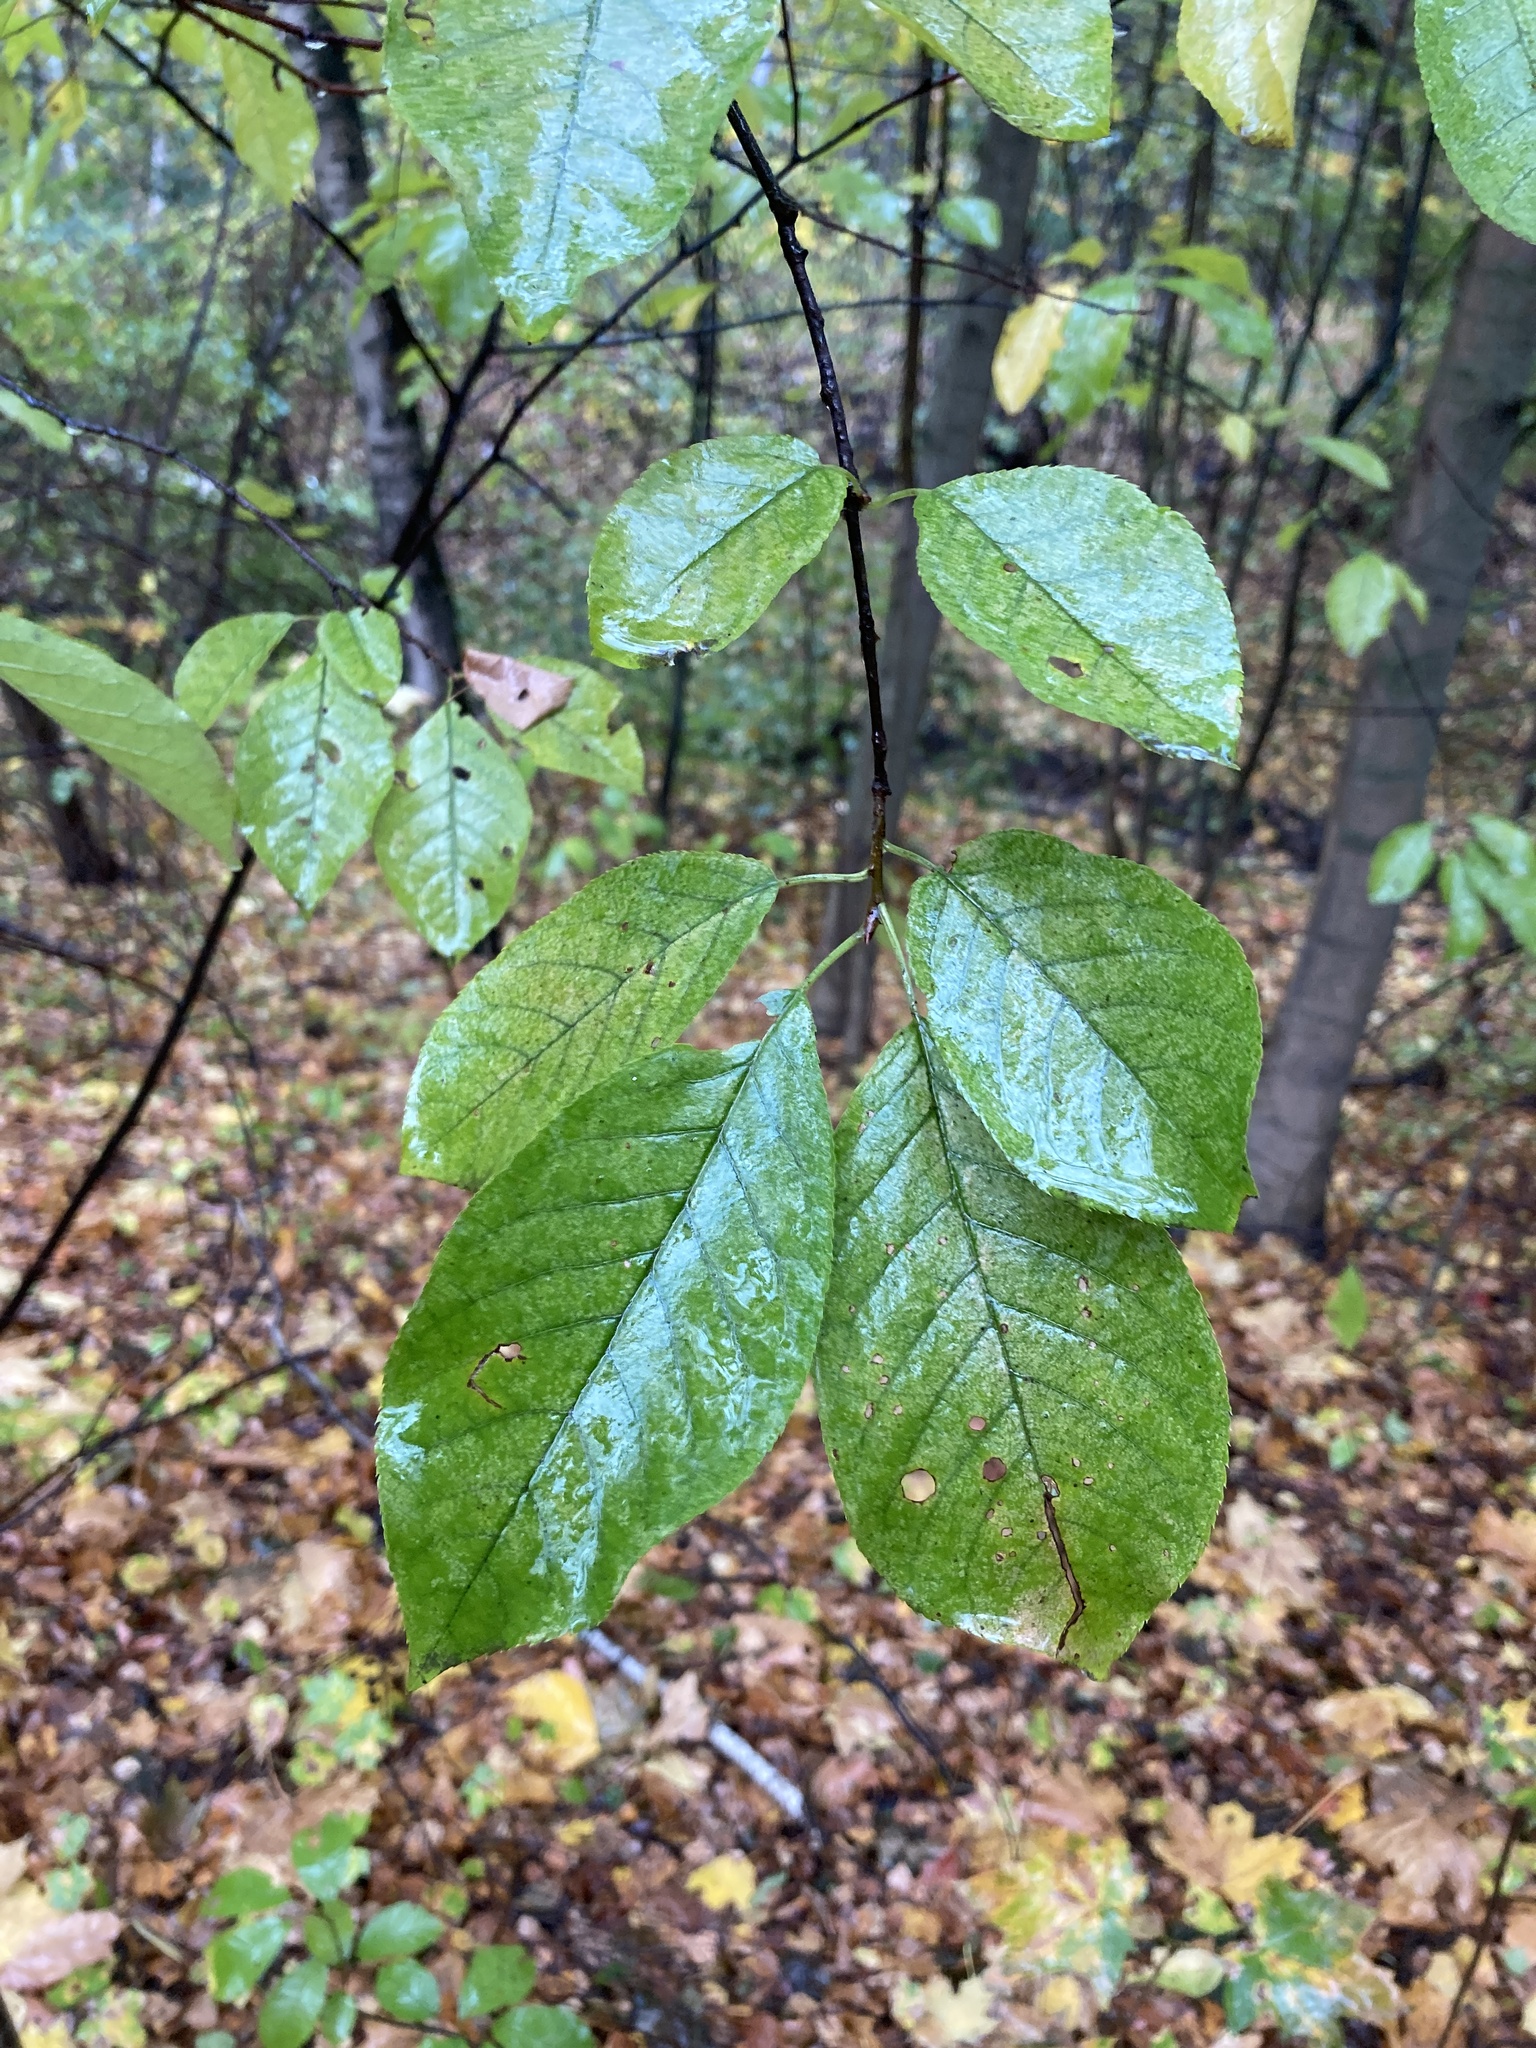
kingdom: Plantae
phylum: Tracheophyta
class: Magnoliopsida
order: Rosales
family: Rosaceae
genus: Prunus
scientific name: Prunus avium
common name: Sweet cherry
